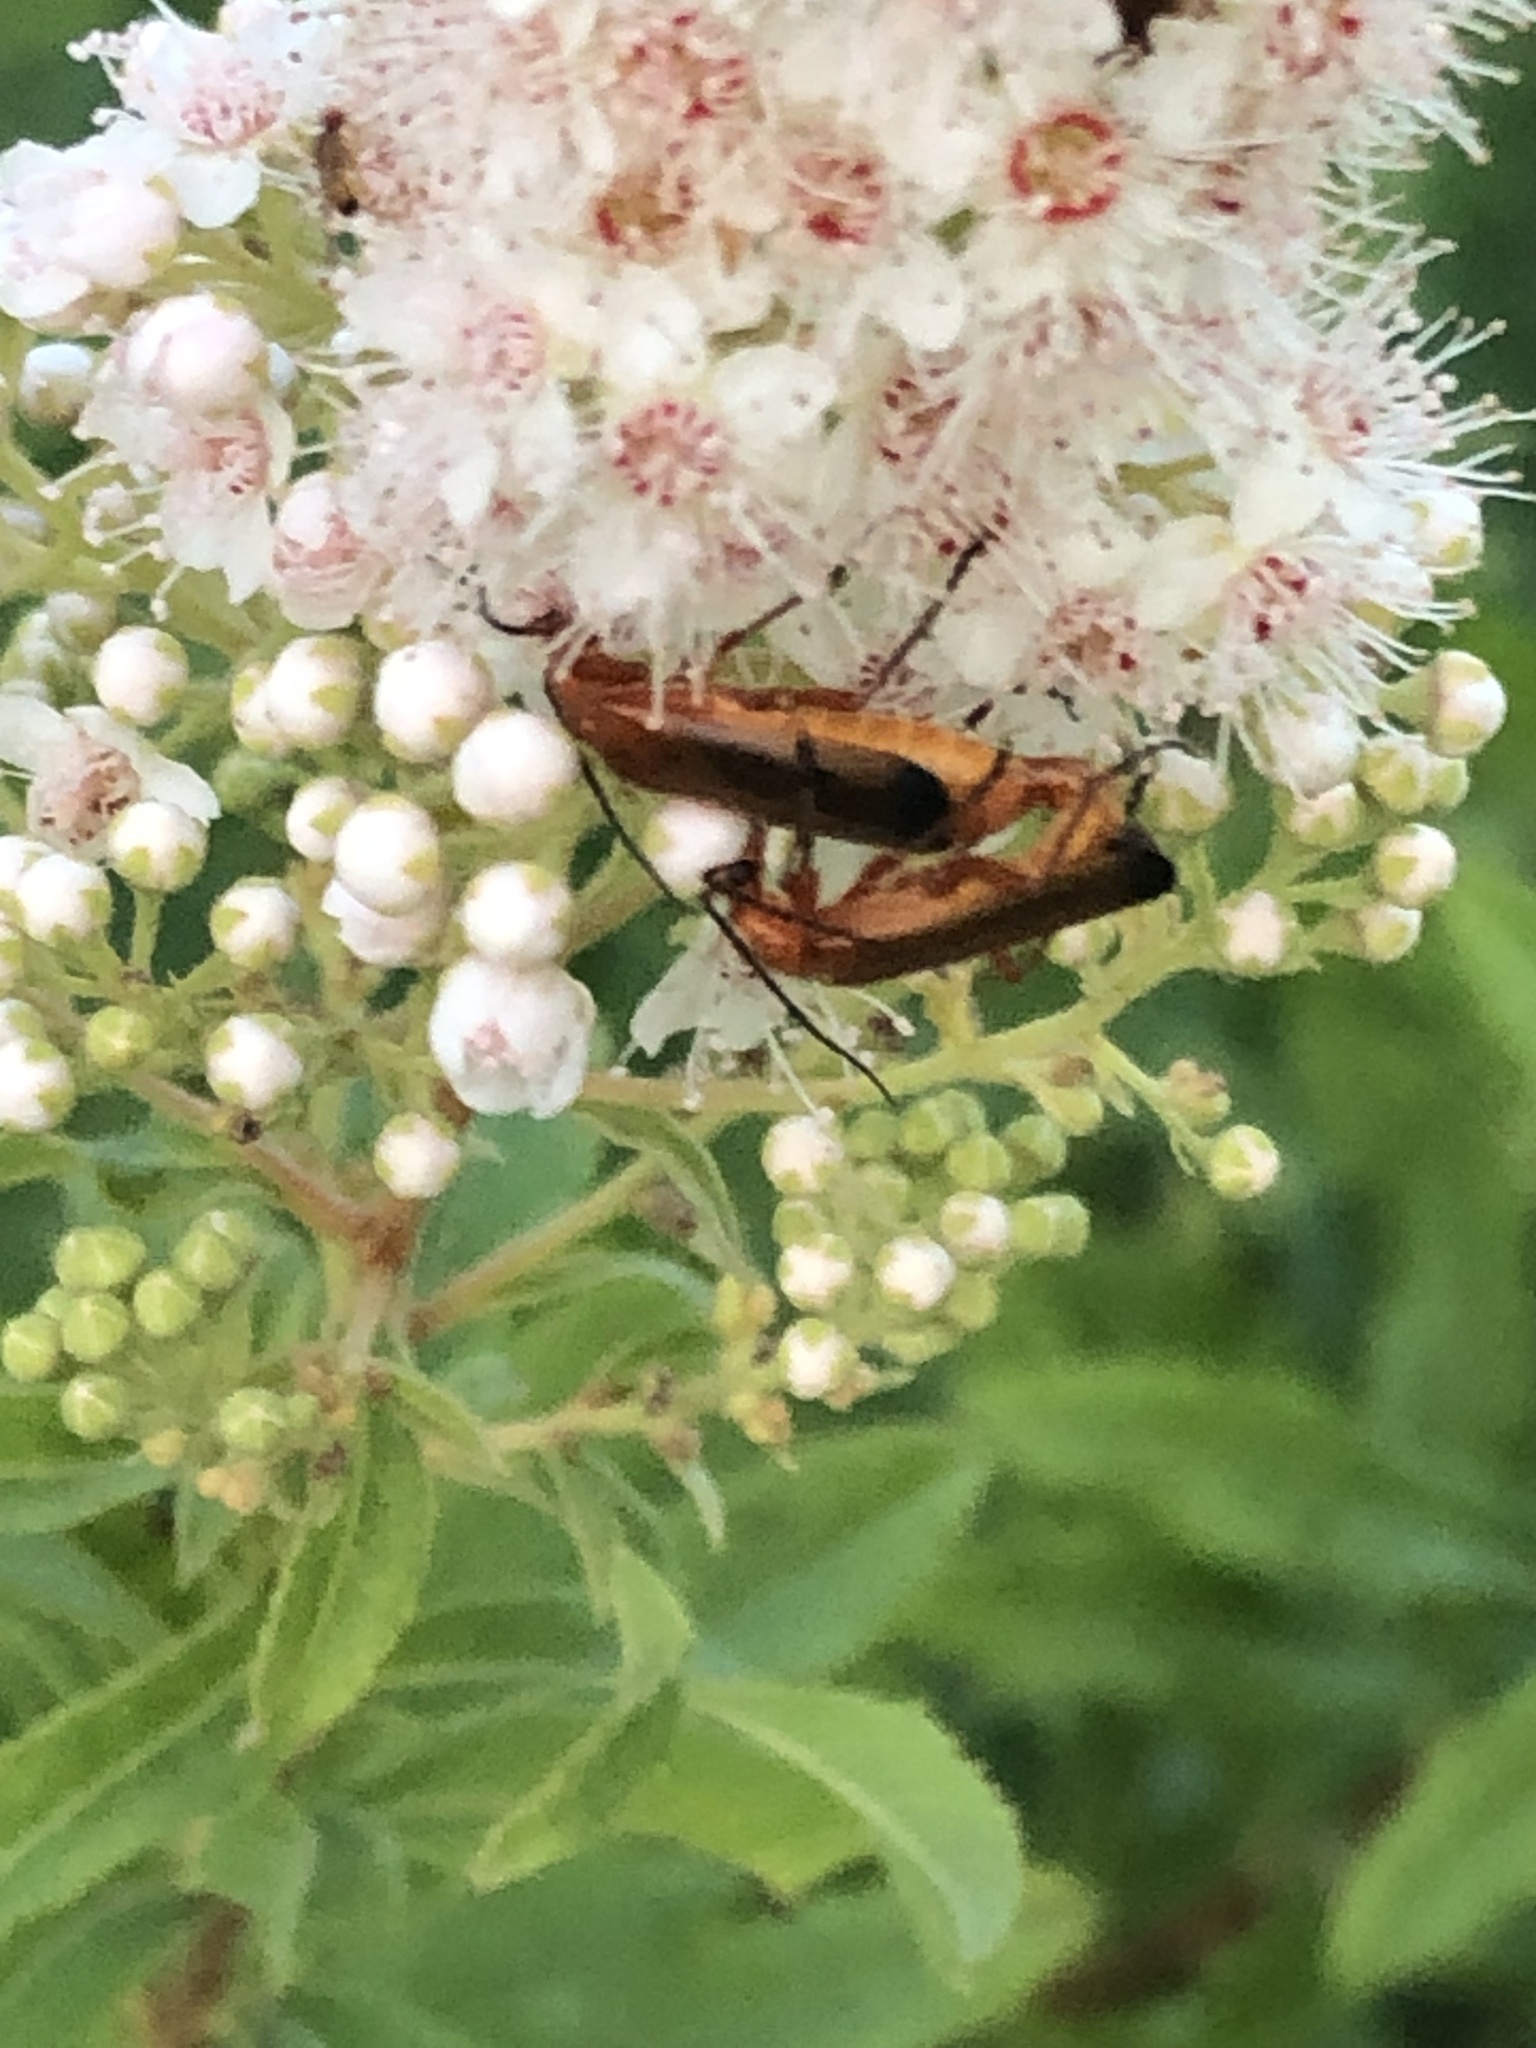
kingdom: Animalia
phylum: Arthropoda
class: Insecta
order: Coleoptera
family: Cantharidae
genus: Rhagonycha
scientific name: Rhagonycha fulva
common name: Common red soldier beetle
